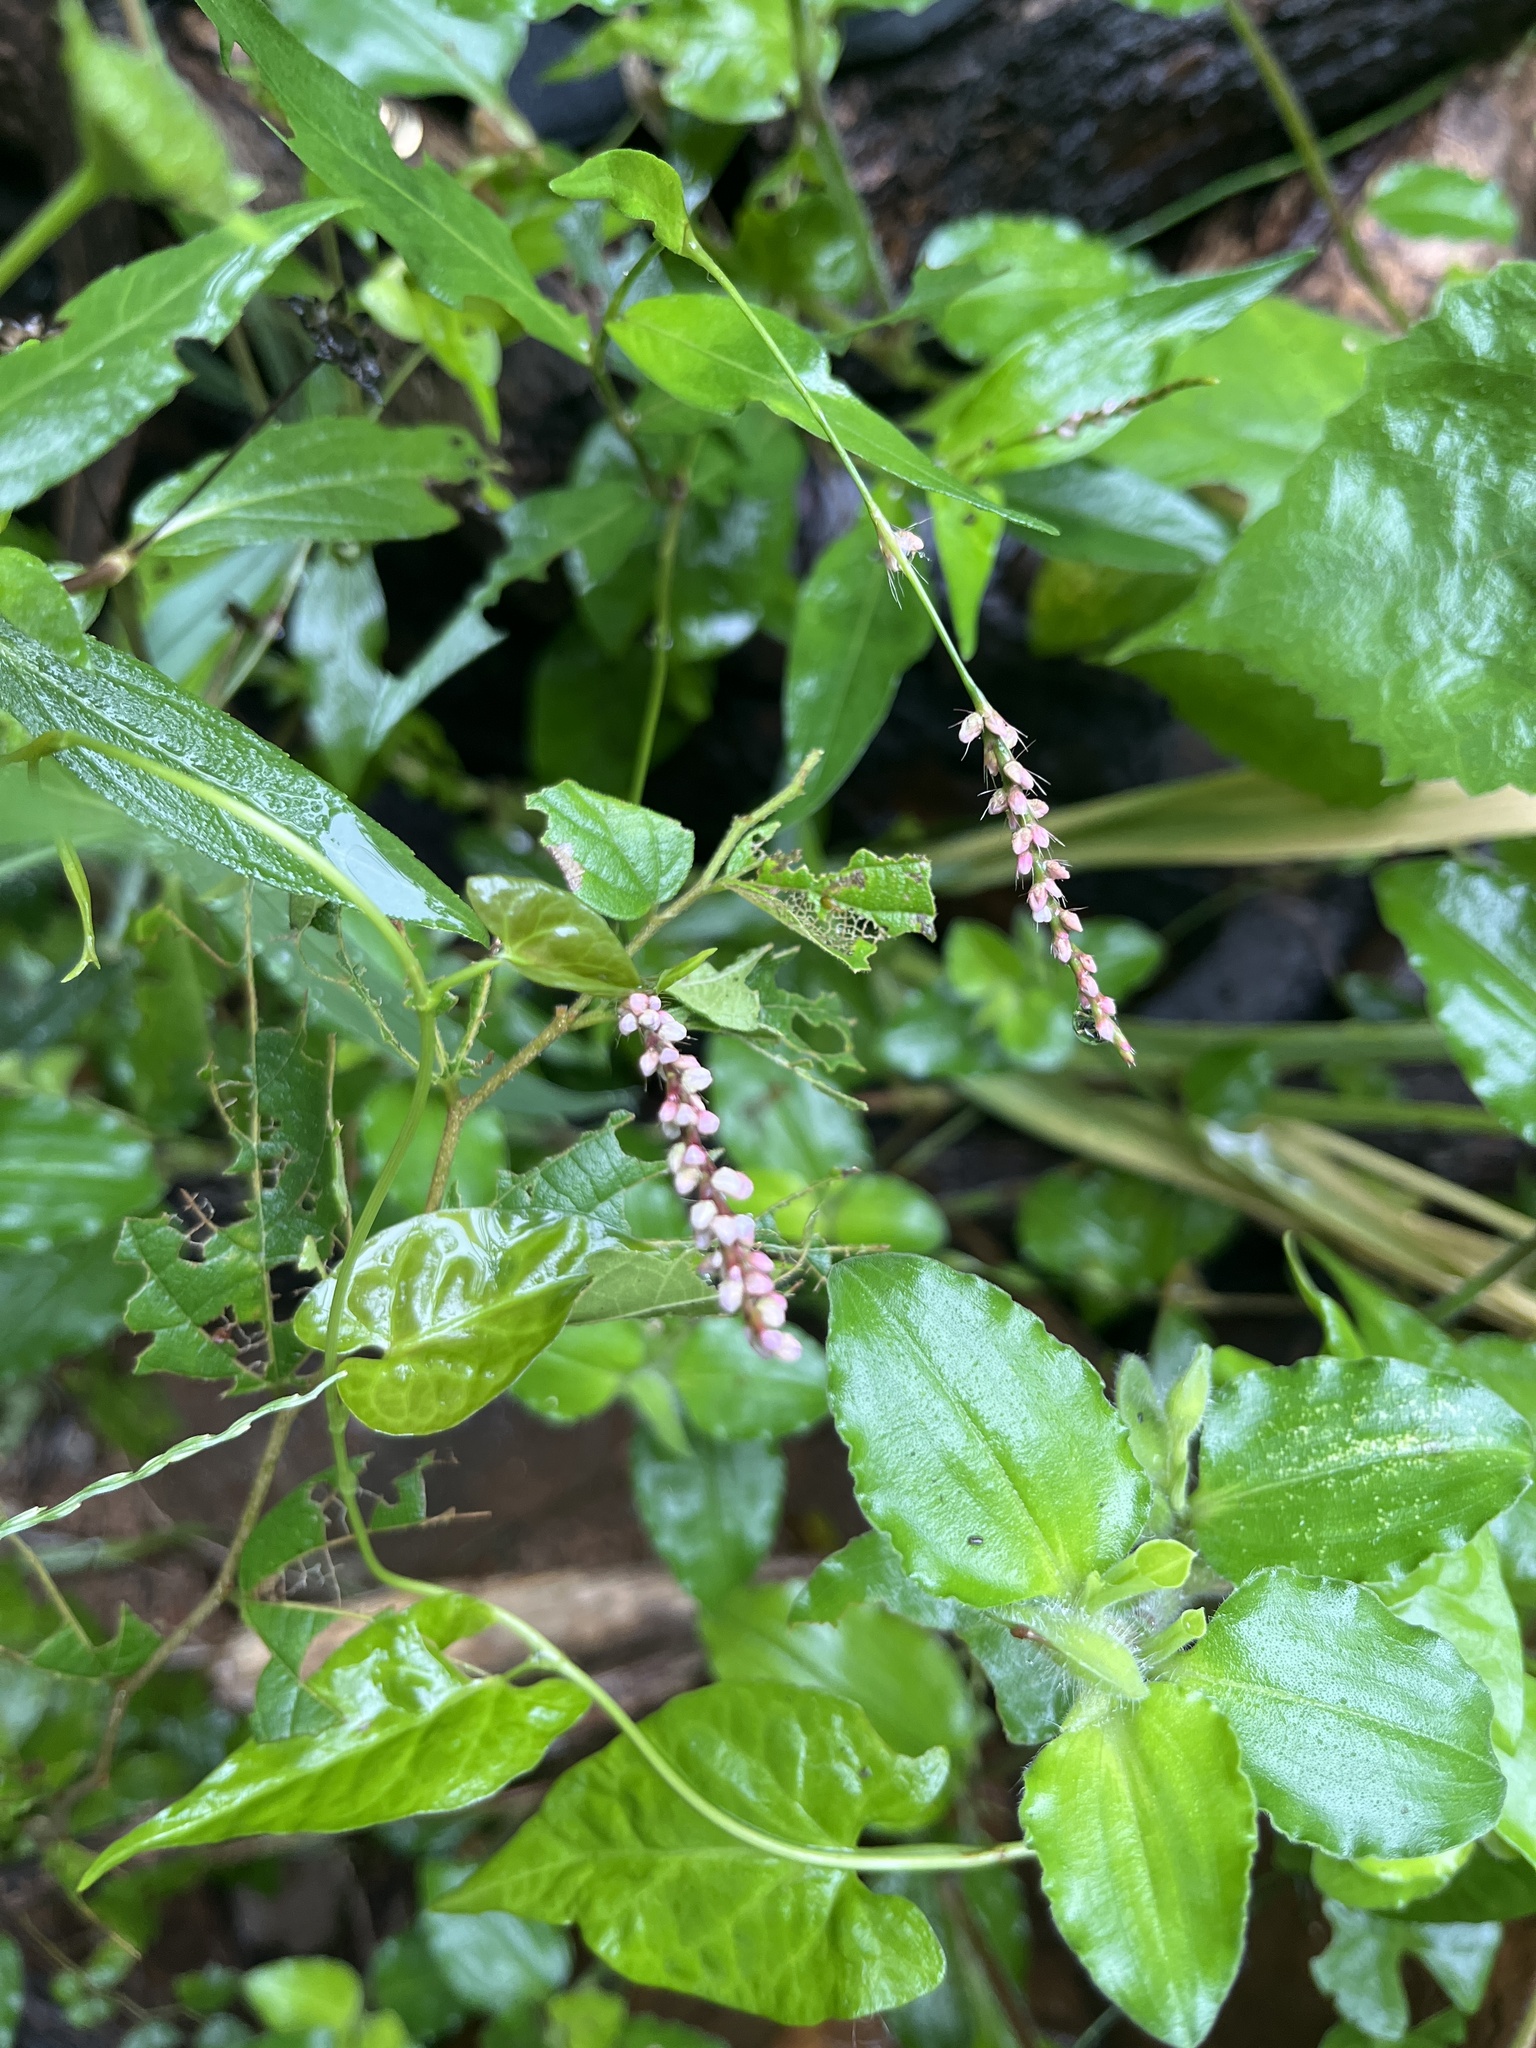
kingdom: Plantae
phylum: Tracheophyta
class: Magnoliopsida
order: Caryophyllales
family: Polygonaceae
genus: Persicaria
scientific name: Persicaria longiseta
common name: Bristly lady's-thumb
